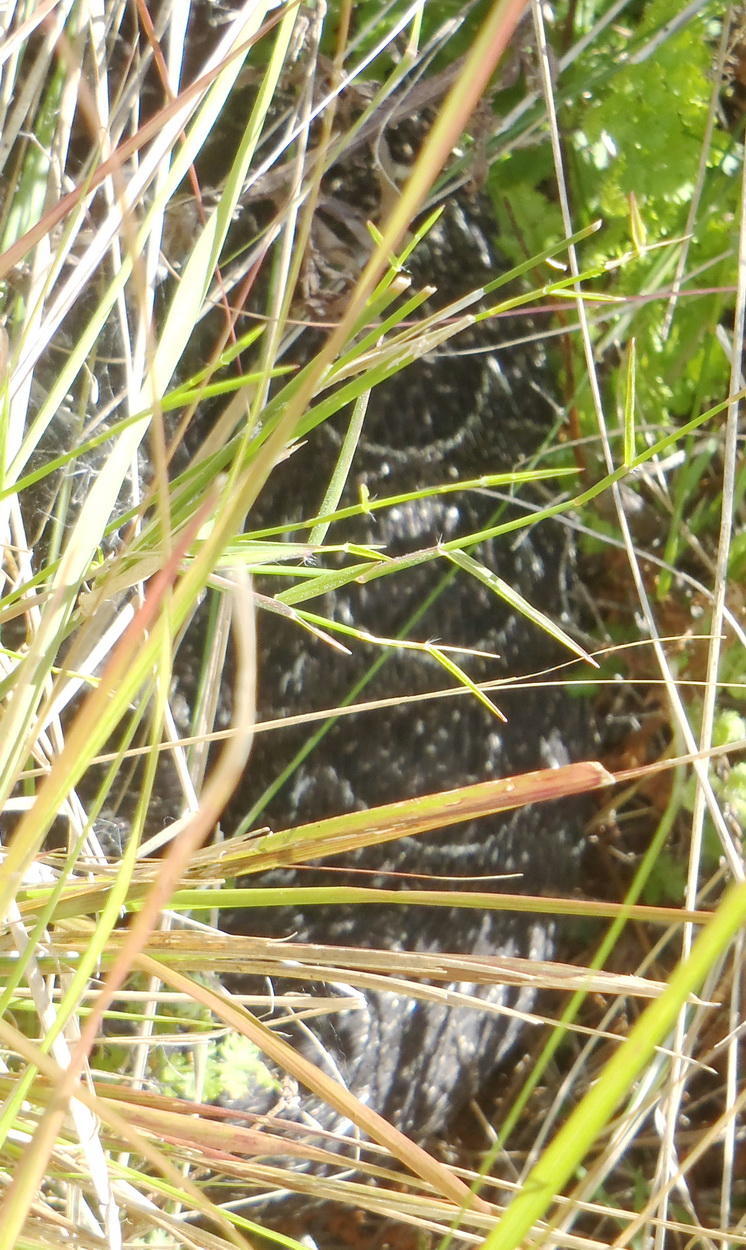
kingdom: Animalia
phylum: Chordata
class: Squamata
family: Viperidae
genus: Bitis
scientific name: Bitis arietans
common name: Puff adder
